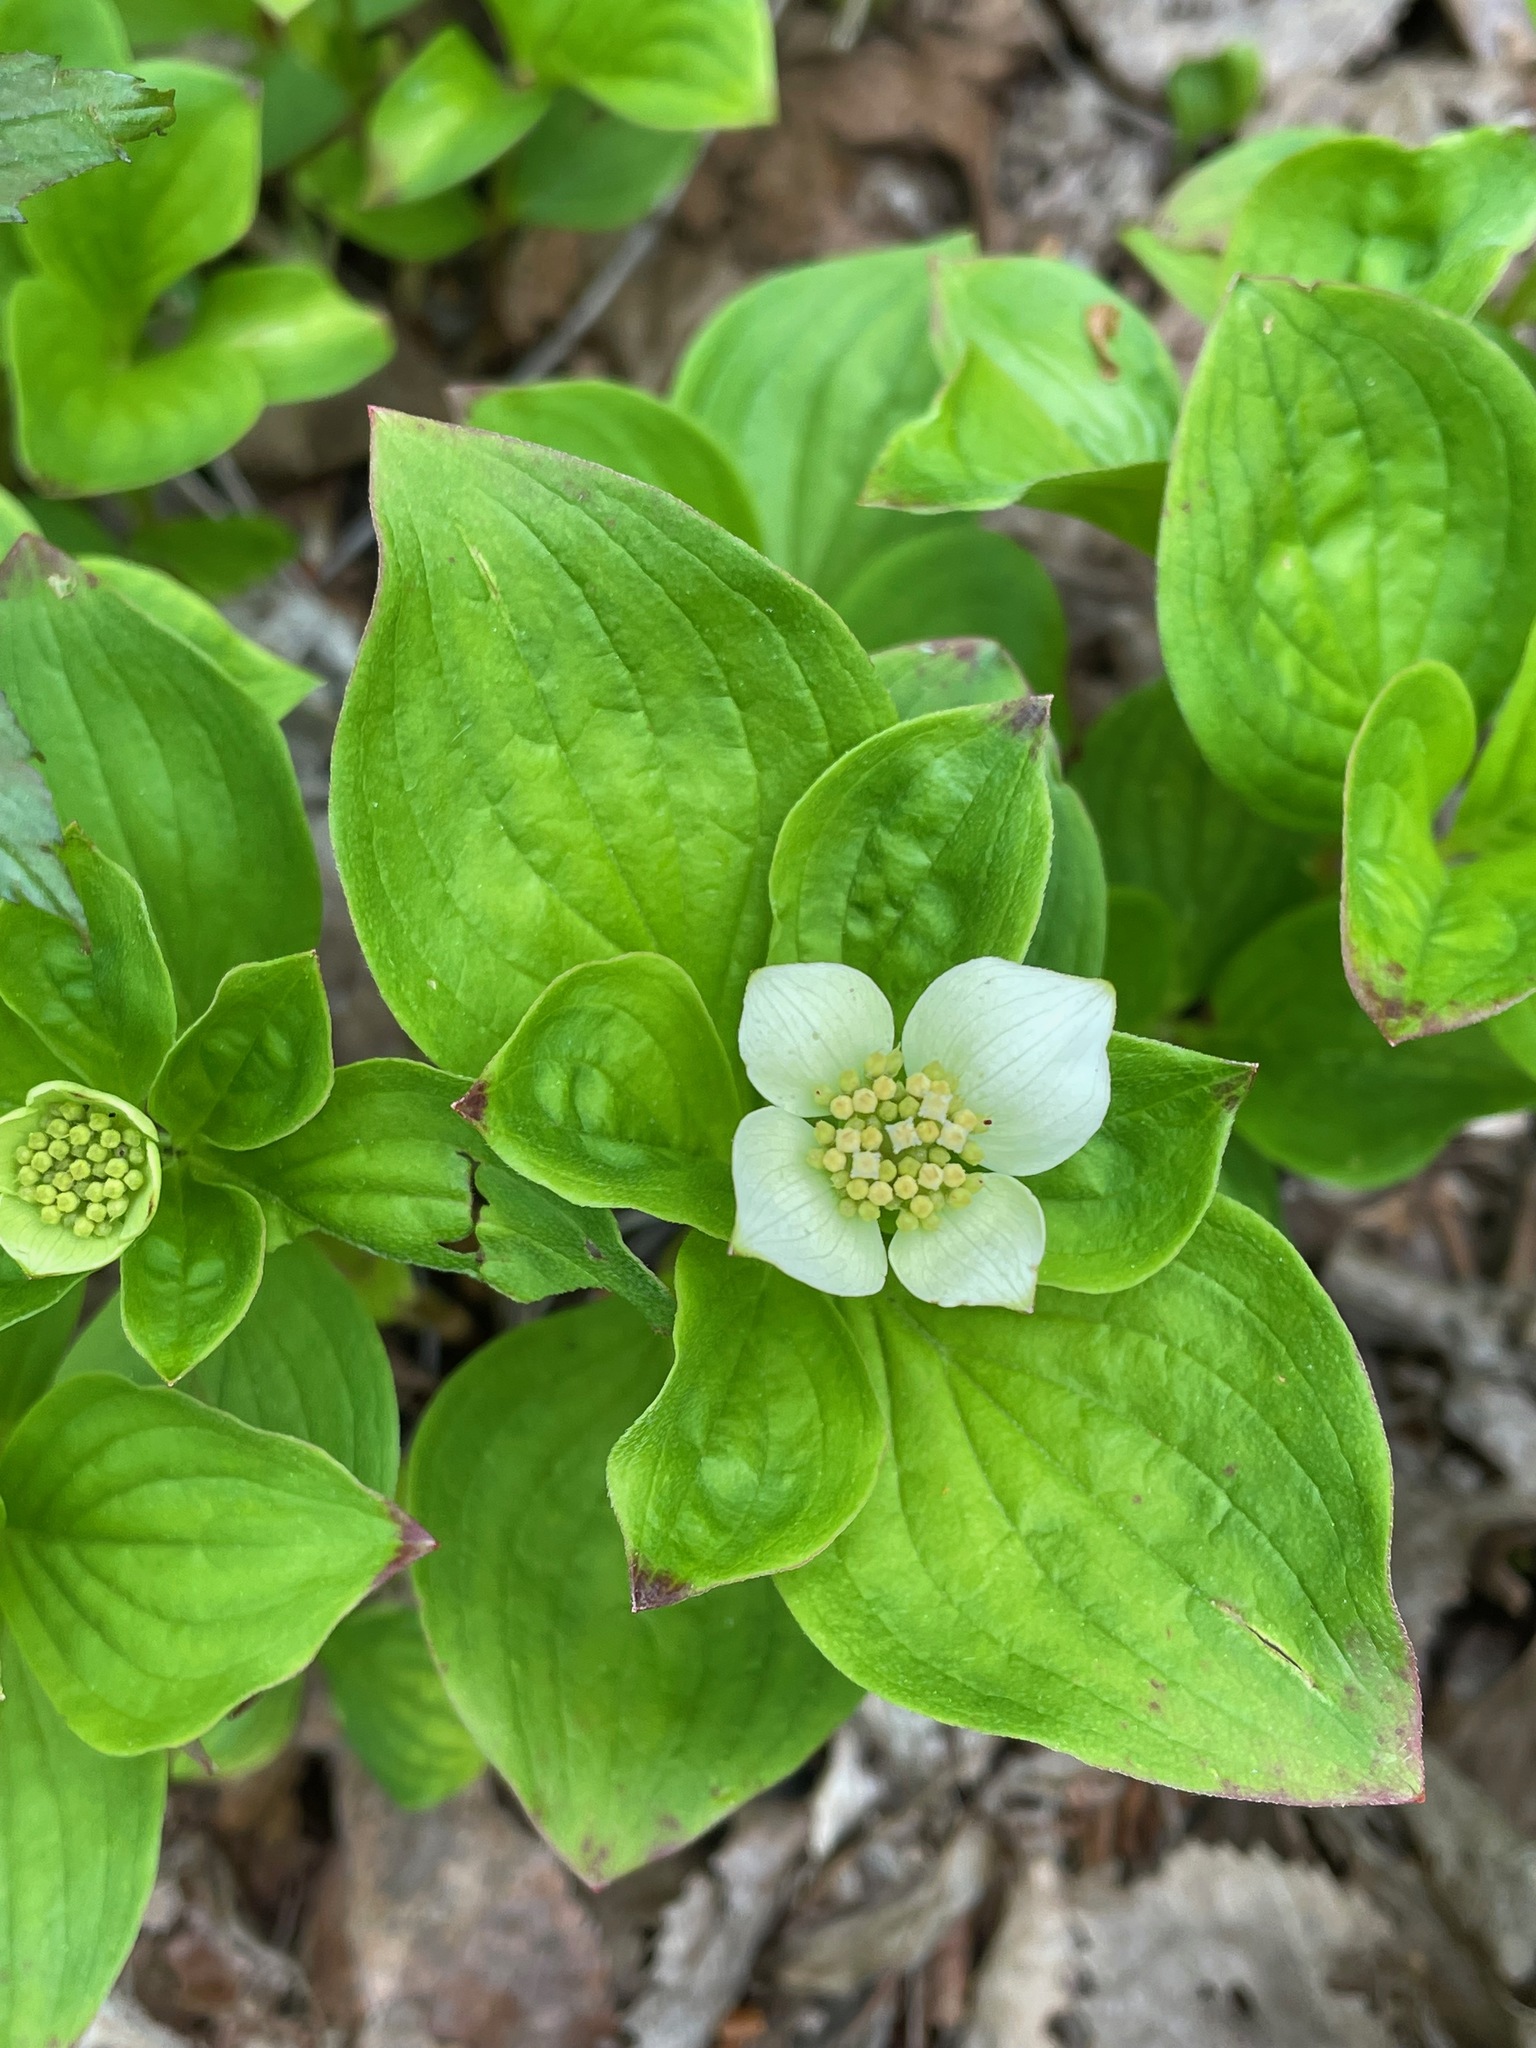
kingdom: Plantae
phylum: Tracheophyta
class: Magnoliopsida
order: Cornales
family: Cornaceae
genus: Cornus
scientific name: Cornus canadensis
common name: Creeping dogwood
